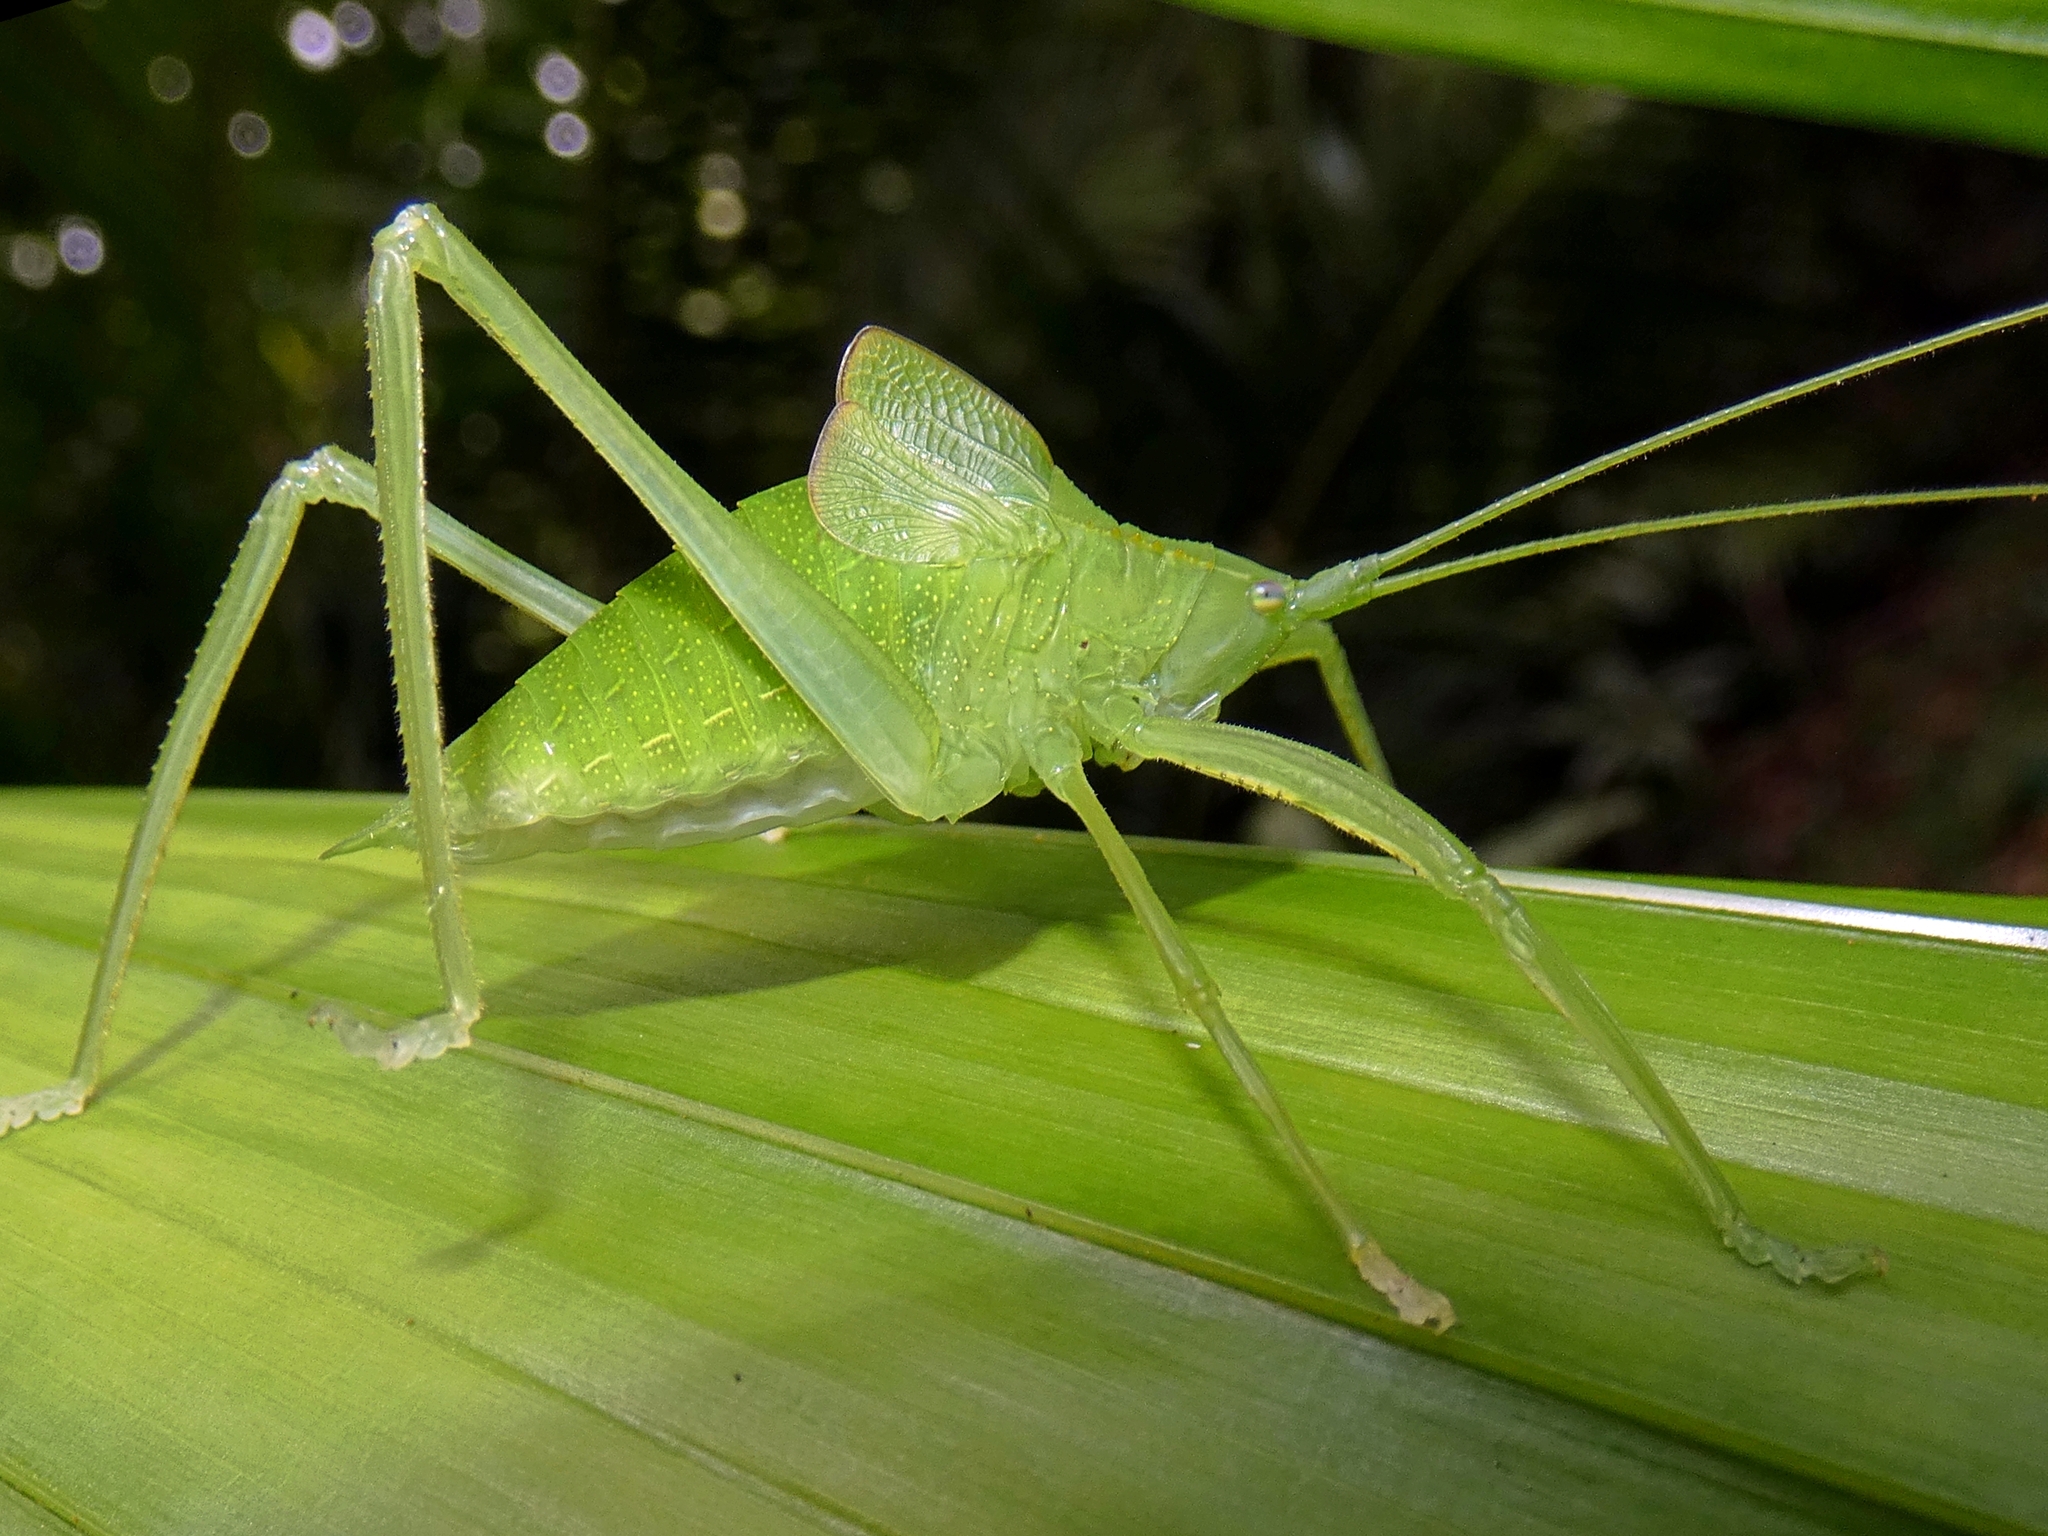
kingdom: Animalia
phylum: Arthropoda
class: Insecta
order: Orthoptera
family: Tettigoniidae
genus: Mastighaphoides
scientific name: Mastighaphoides tuberculatus
